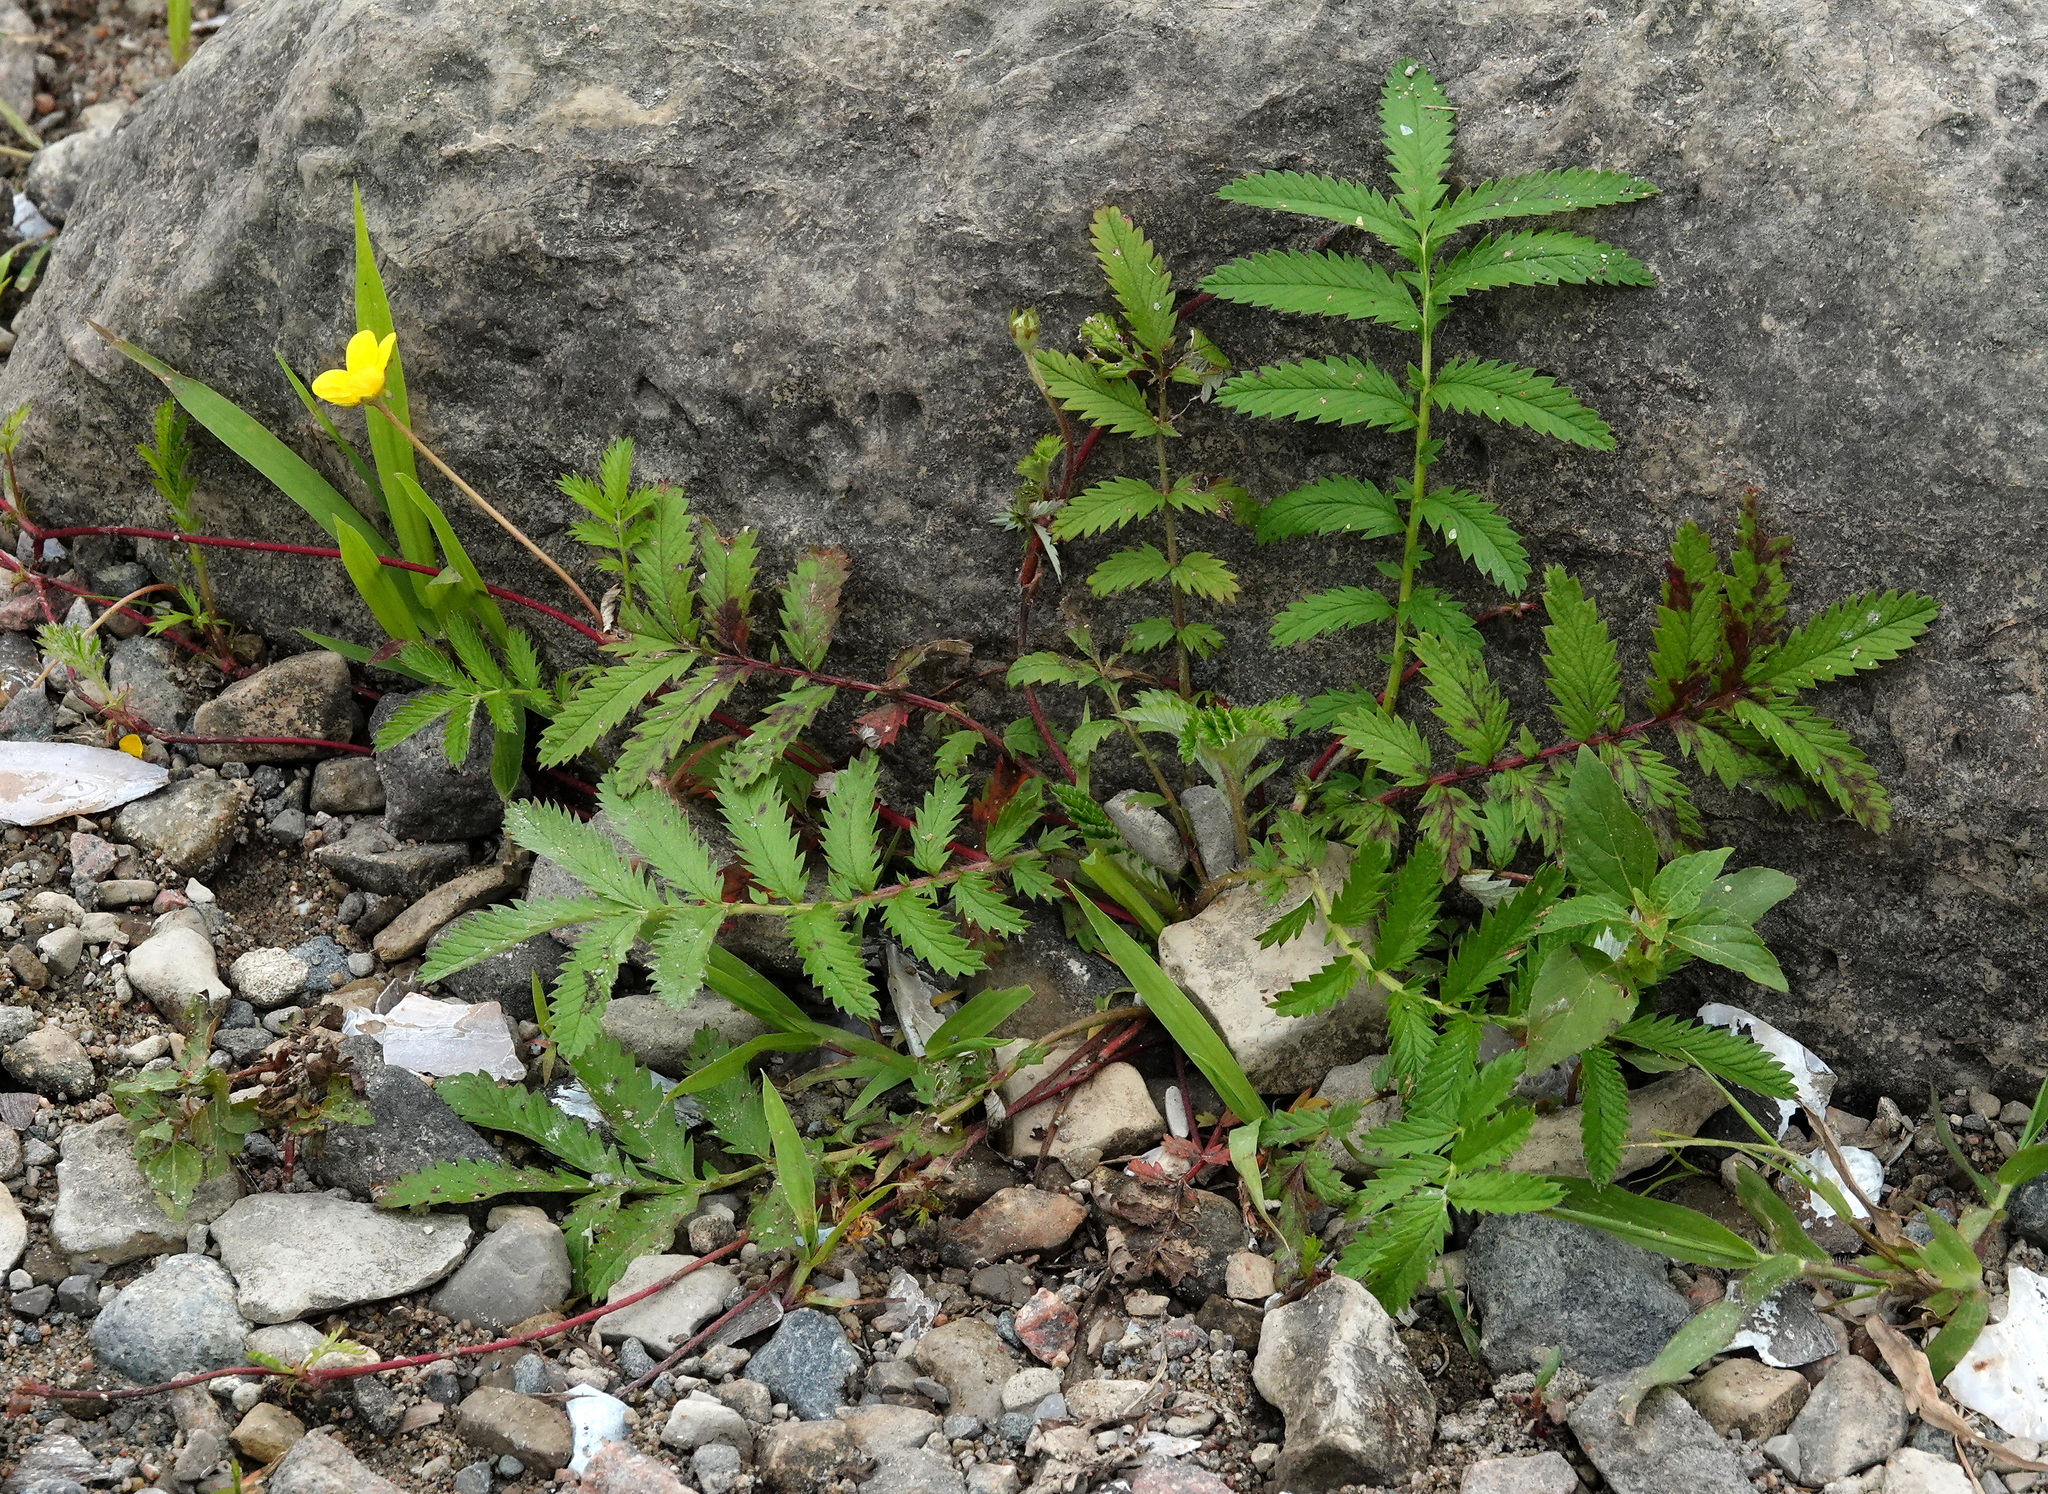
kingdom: Plantae
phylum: Tracheophyta
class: Magnoliopsida
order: Rosales
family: Rosaceae
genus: Argentina
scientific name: Argentina anserina
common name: Common silverweed
